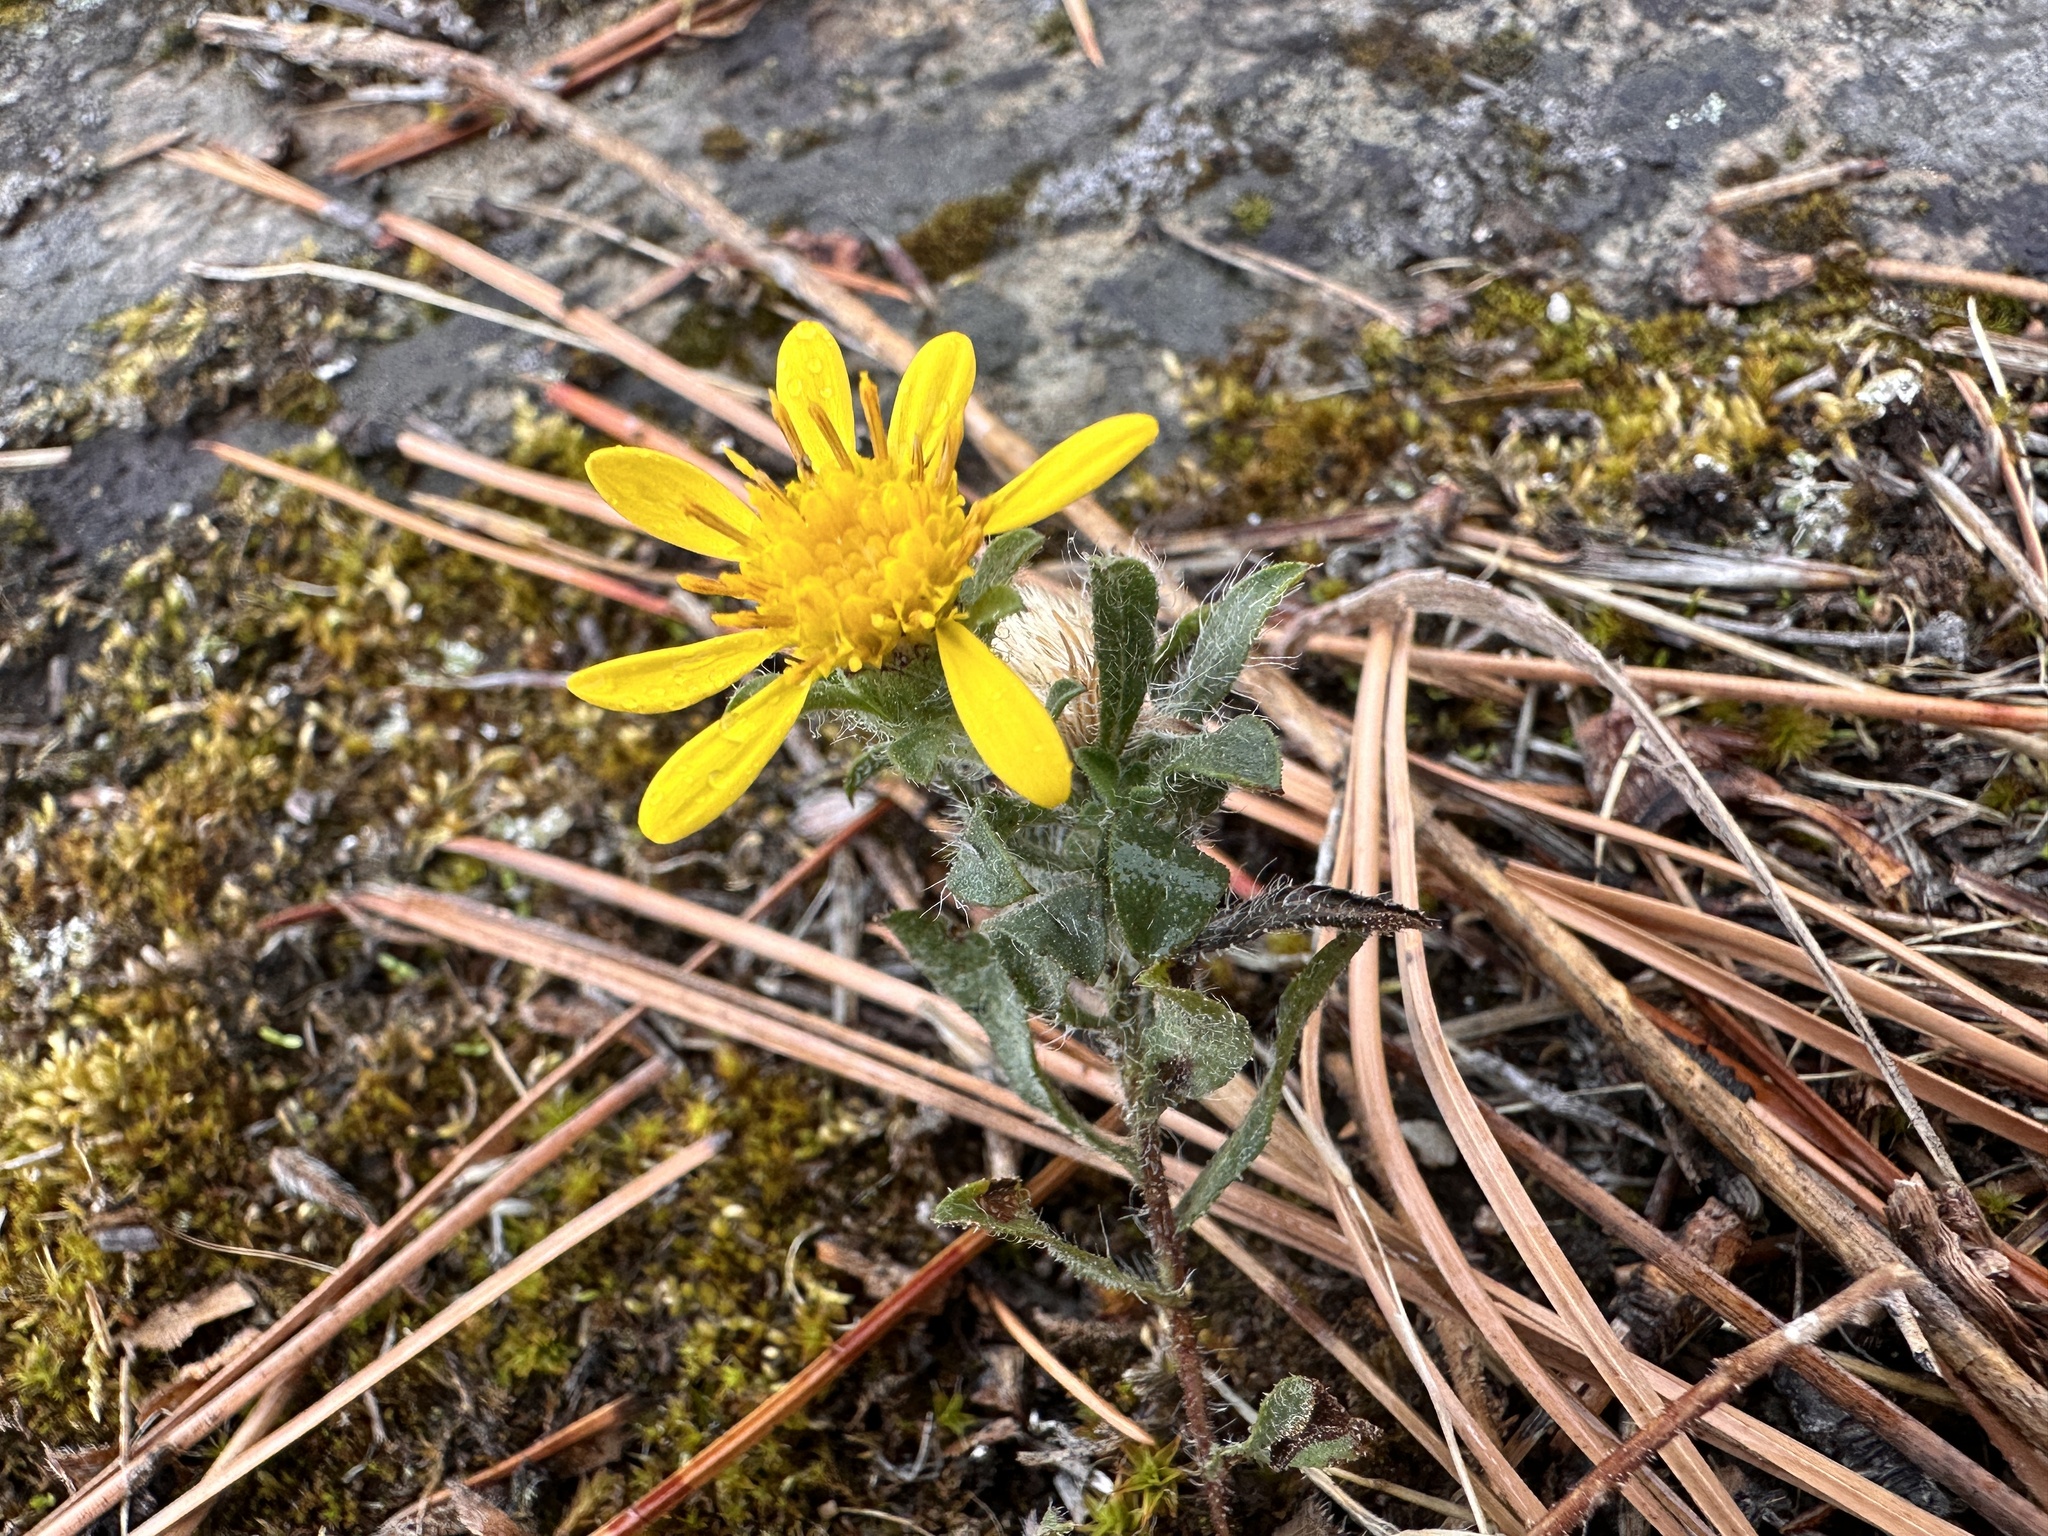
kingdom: Plantae
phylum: Tracheophyta
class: Magnoliopsida
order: Asterales
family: Asteraceae
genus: Heterotheca
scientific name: Heterotheca villosa
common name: Hairy false goldenaster
